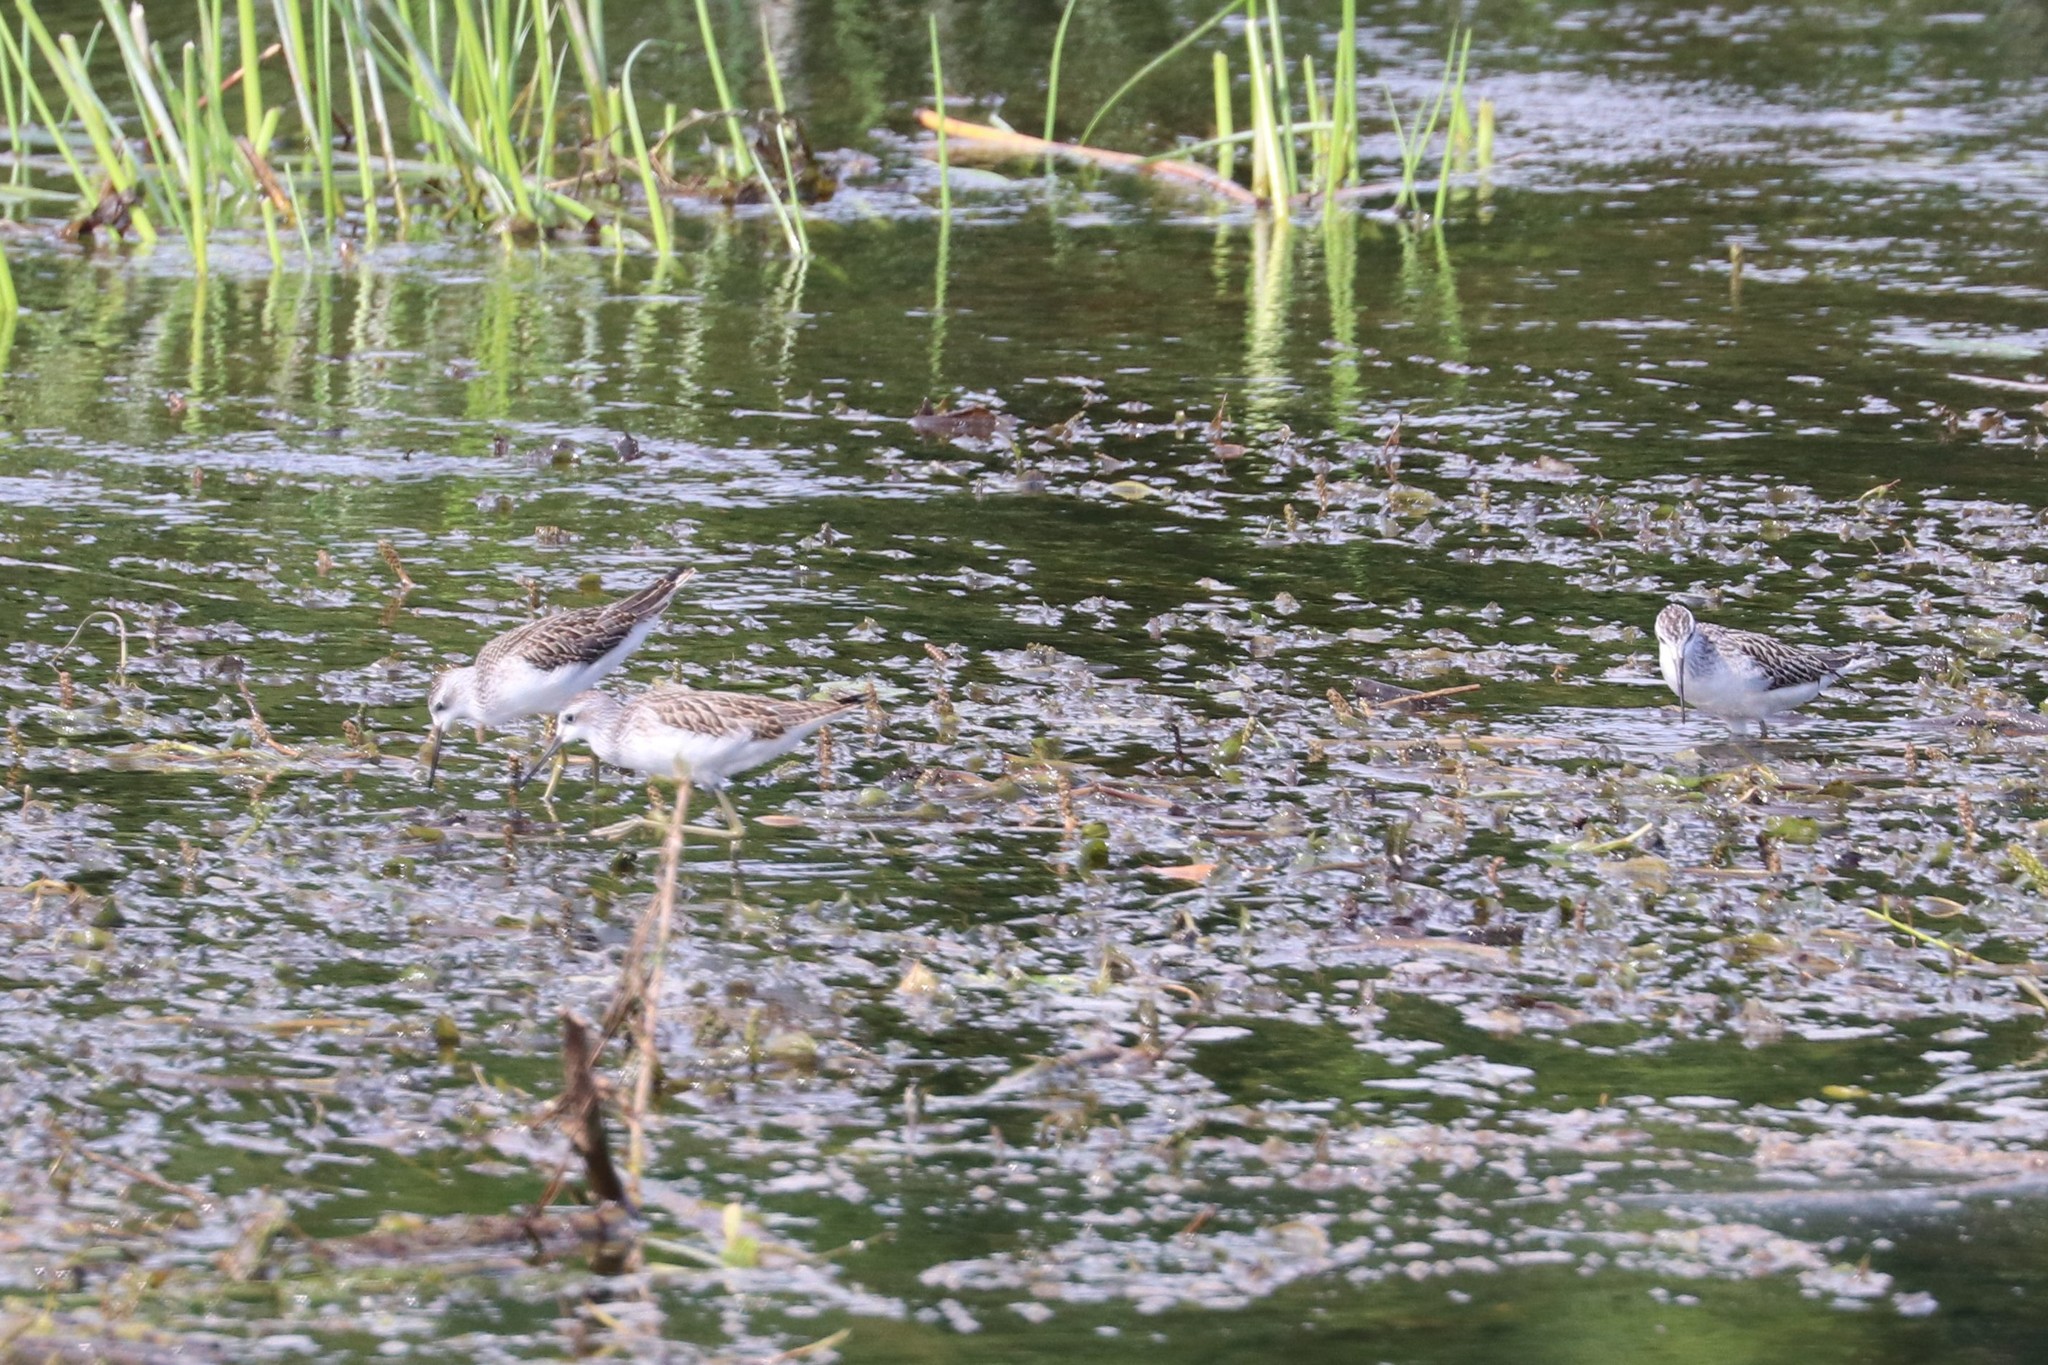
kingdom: Animalia
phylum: Chordata
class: Aves
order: Charadriiformes
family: Scolopacidae
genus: Tringa
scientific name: Tringa stagnatilis
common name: Marsh sandpiper
